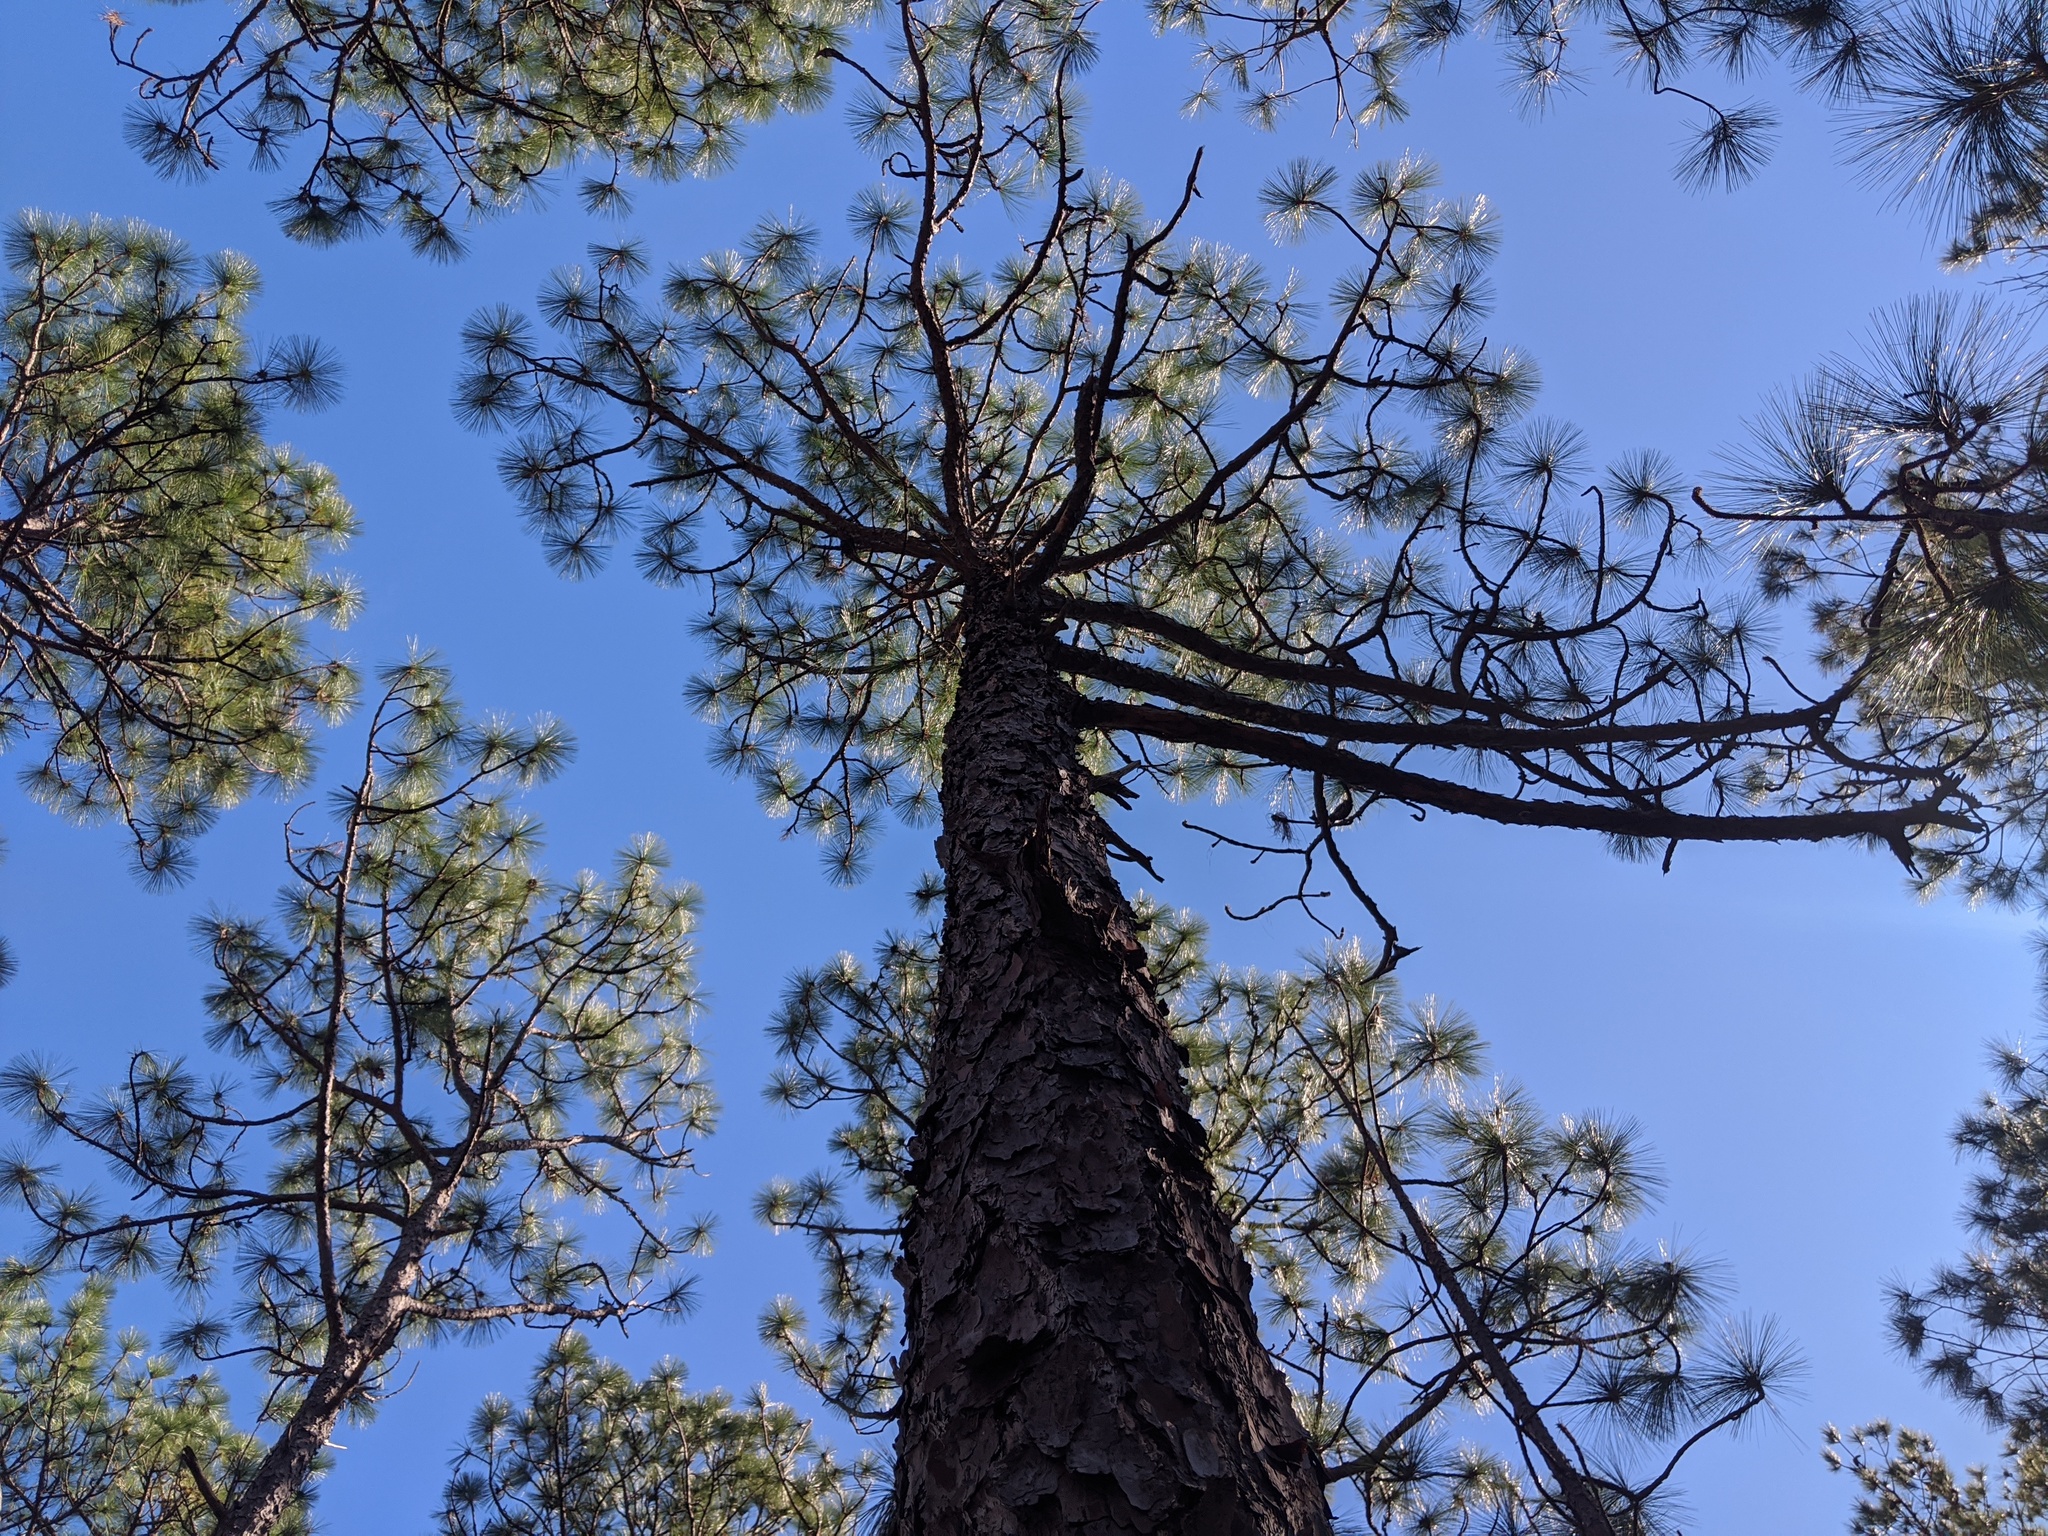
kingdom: Plantae
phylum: Tracheophyta
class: Pinopsida
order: Pinales
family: Pinaceae
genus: Pinus
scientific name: Pinus palustris
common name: Longleaf pine
